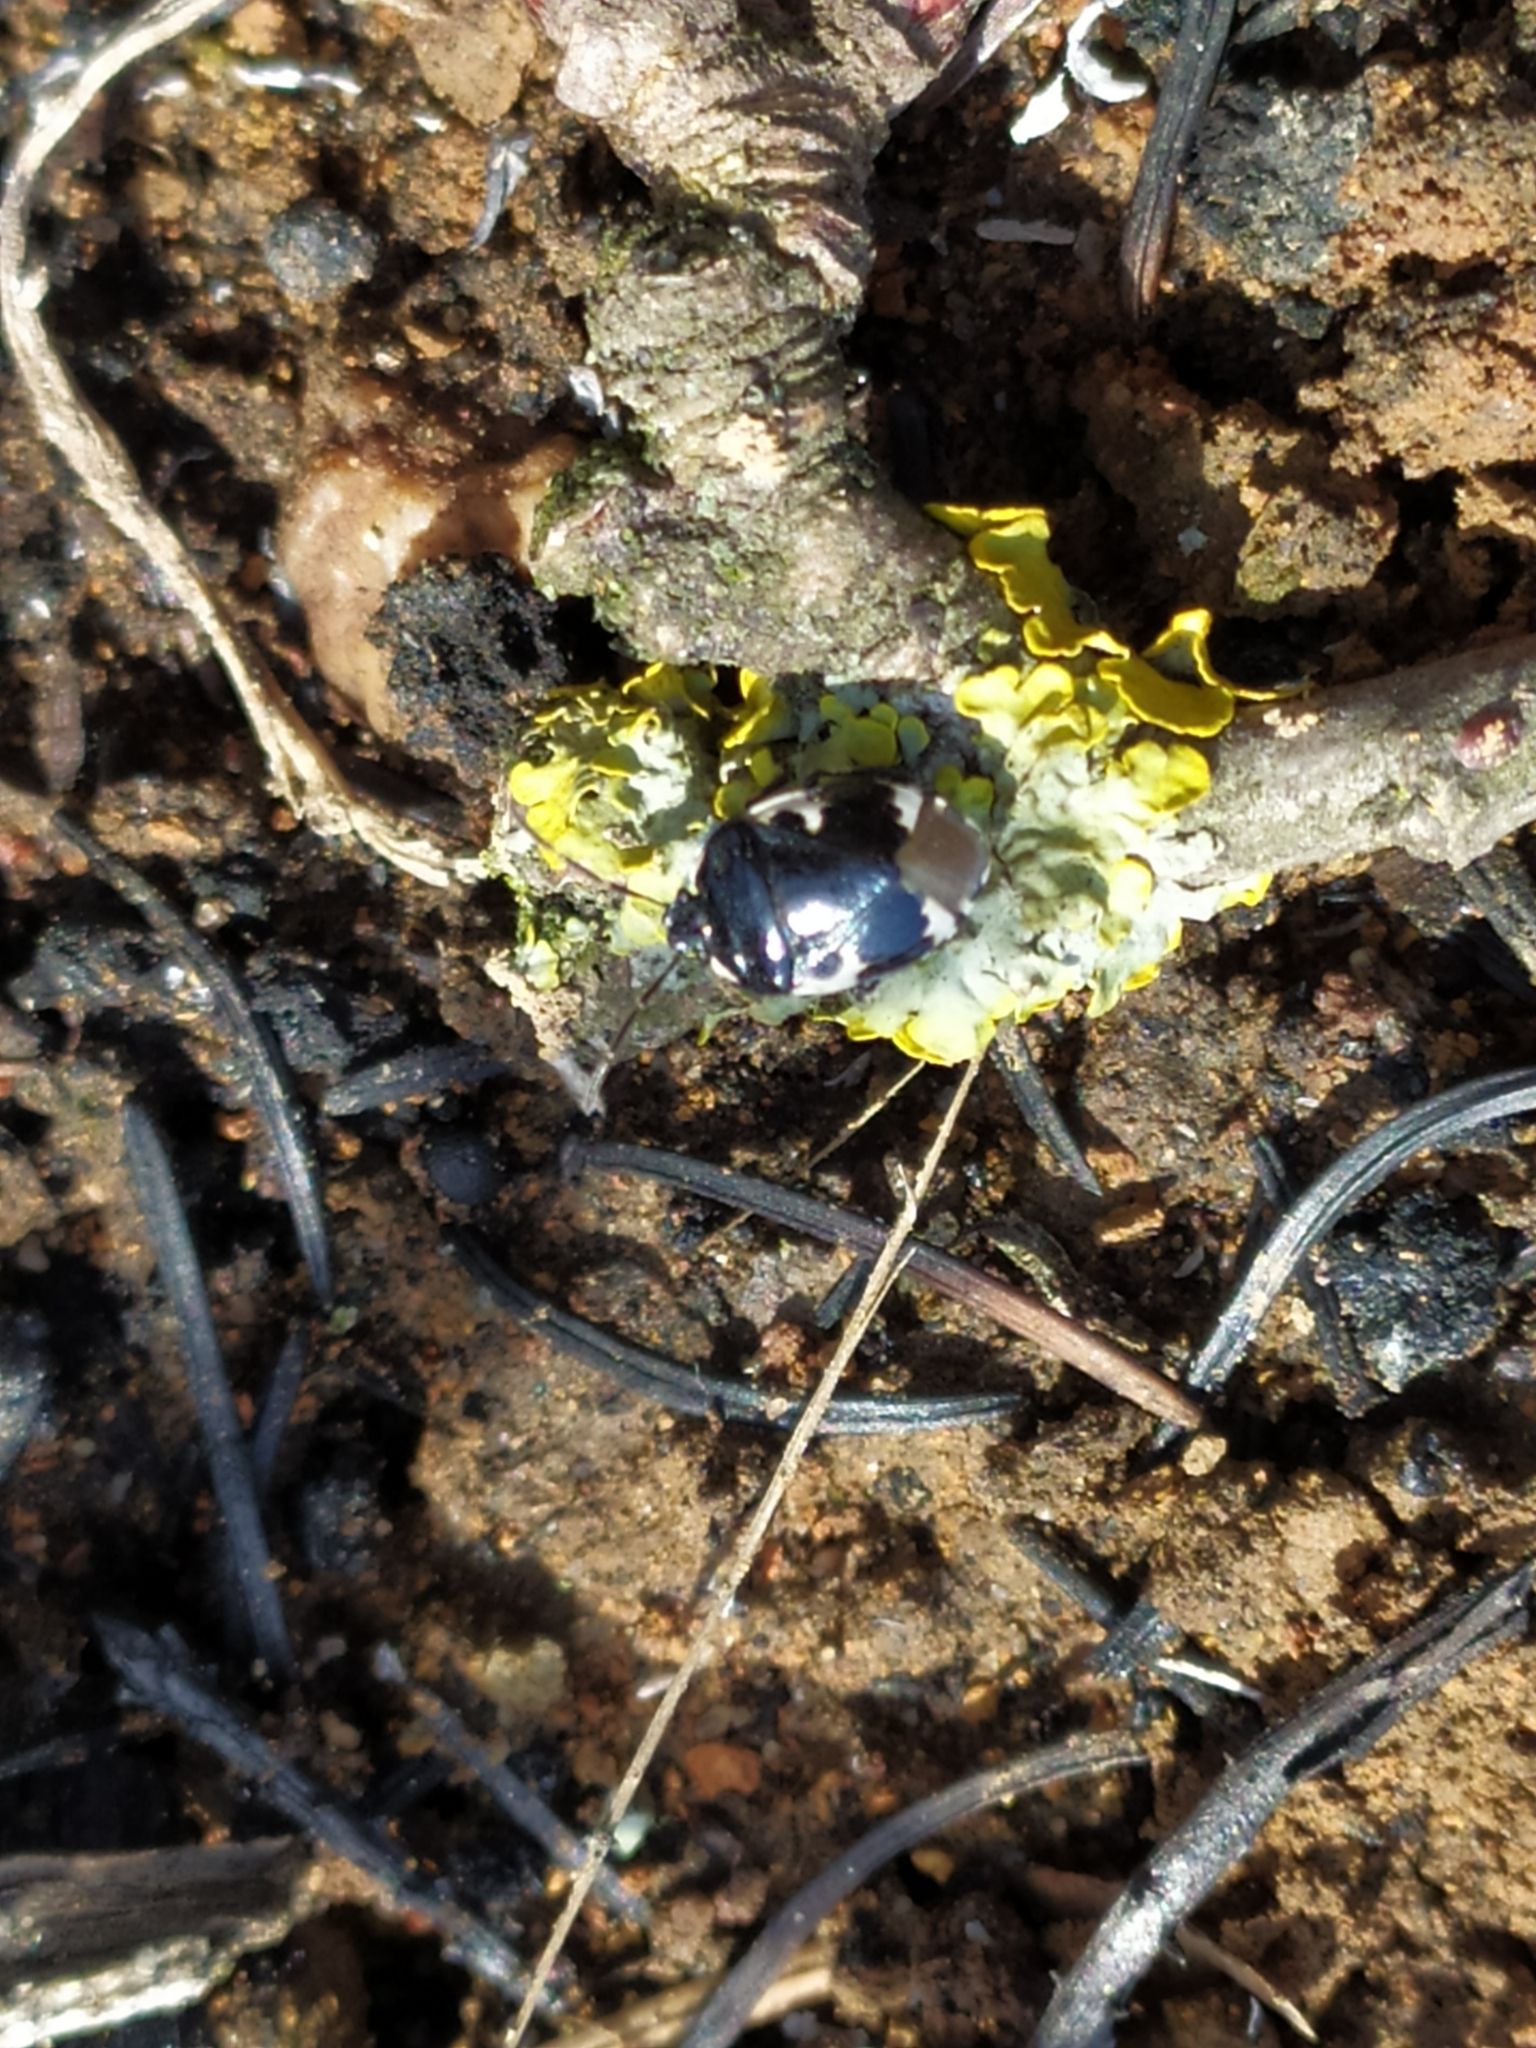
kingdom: Animalia
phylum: Arthropoda
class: Insecta
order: Hemiptera
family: Cydnidae
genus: Tritomegas
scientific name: Tritomegas bicolor
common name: Pied shieldbug
